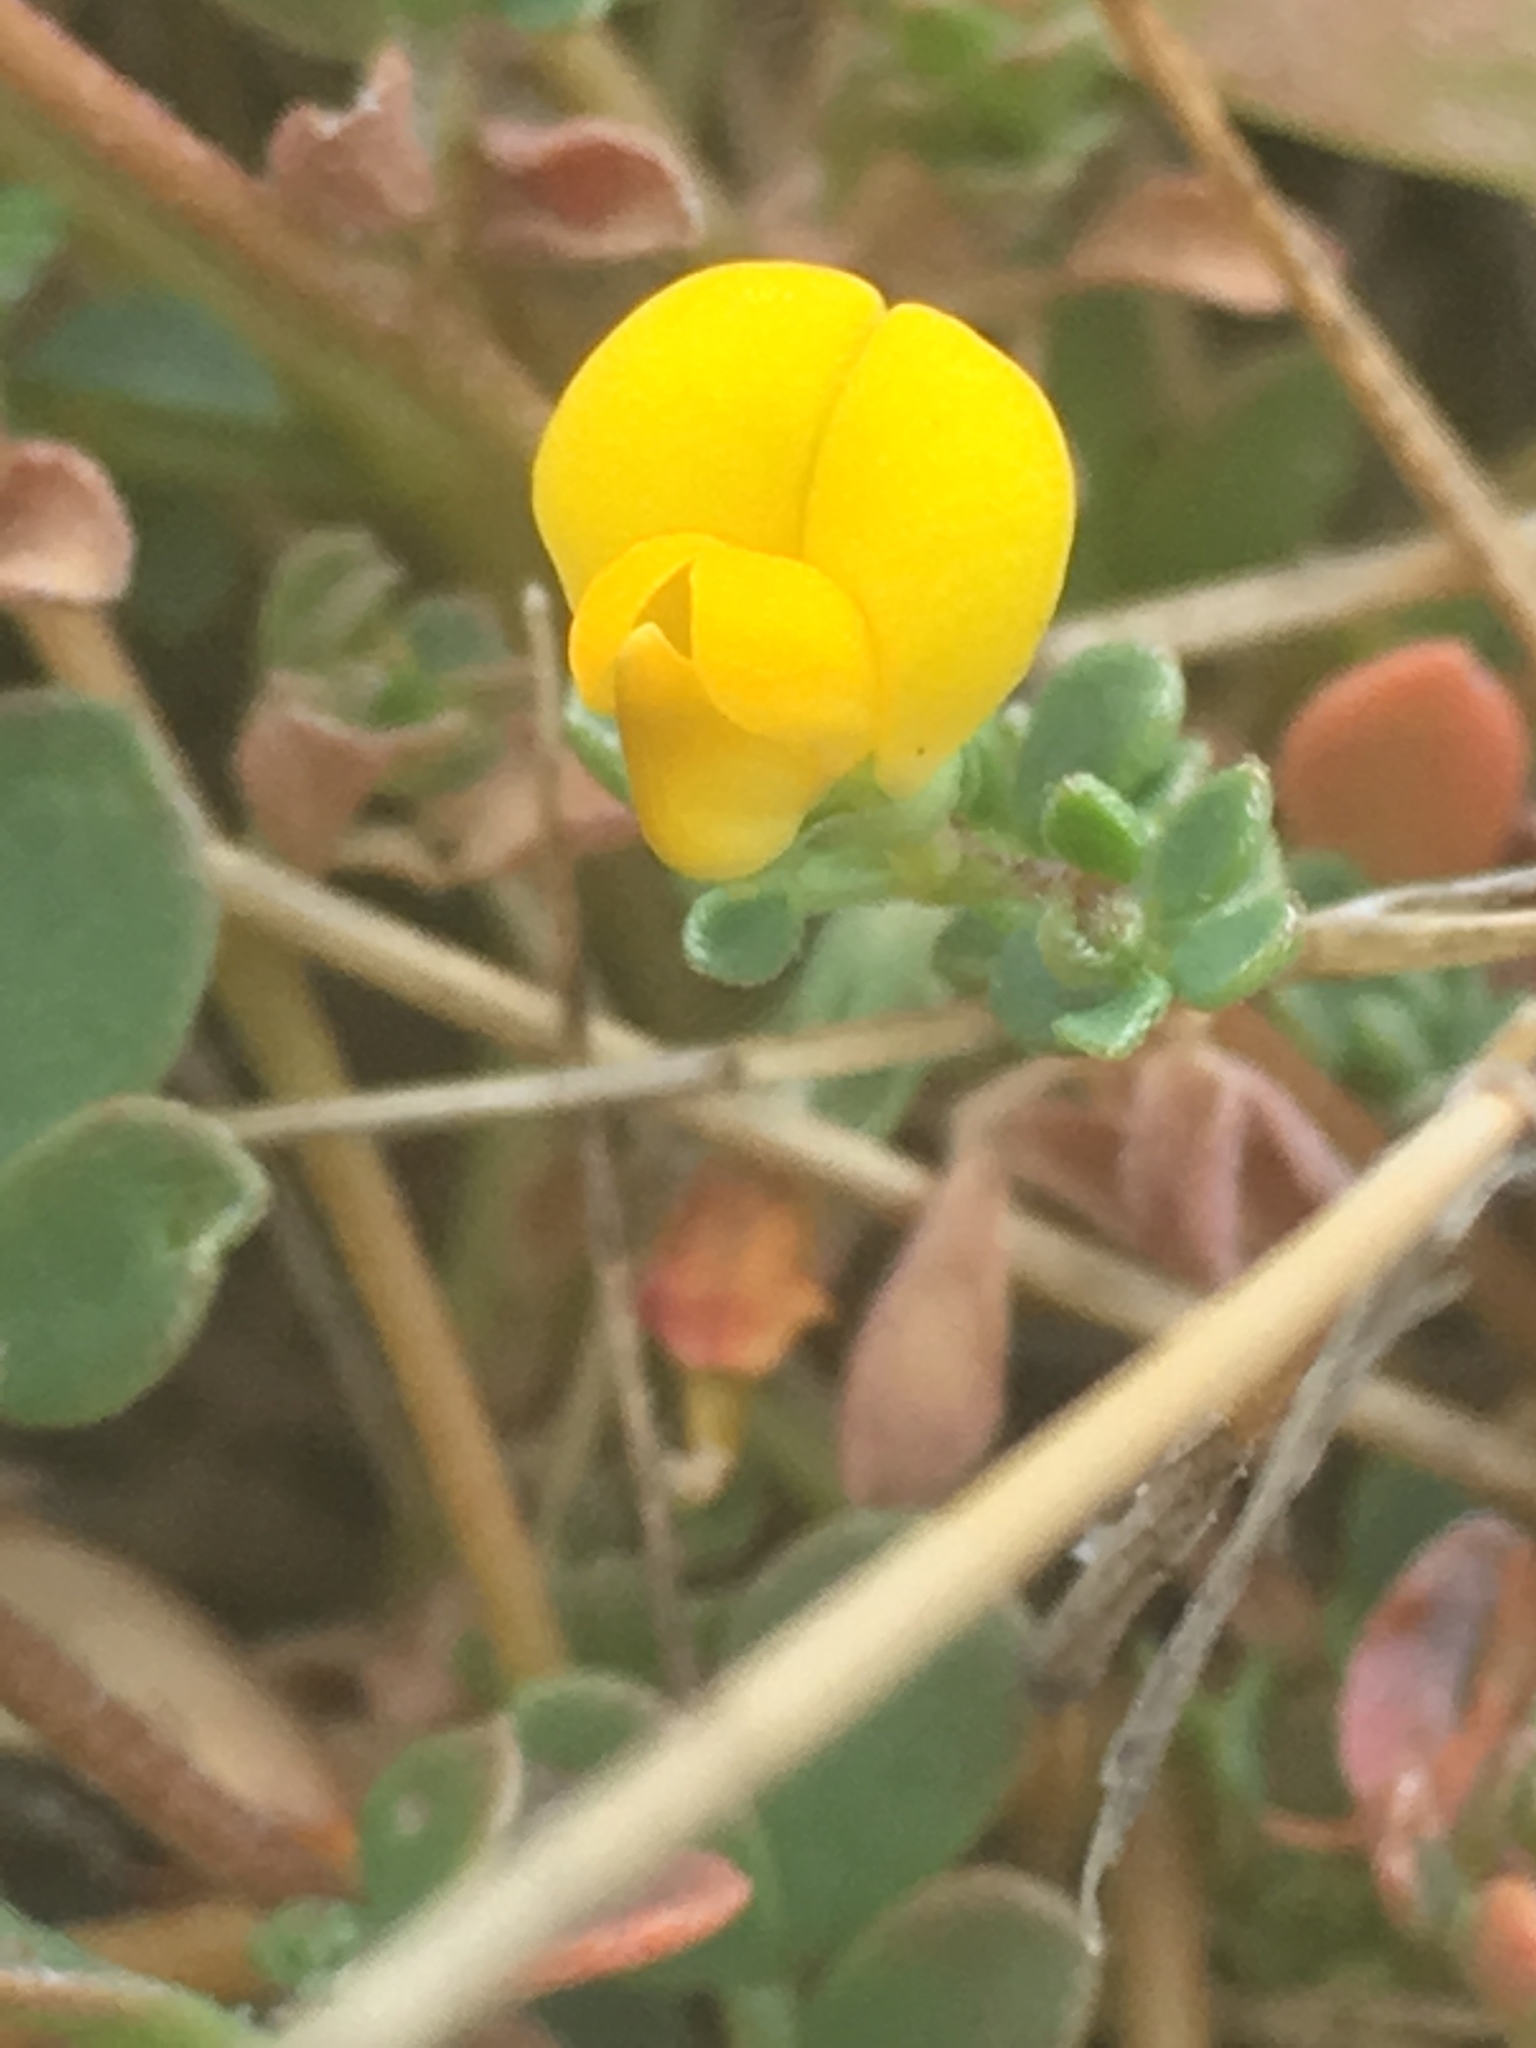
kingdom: Plantae
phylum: Tracheophyta
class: Magnoliopsida
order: Fabales
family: Fabaceae
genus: Acmispon
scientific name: Acmispon wrangelianus
